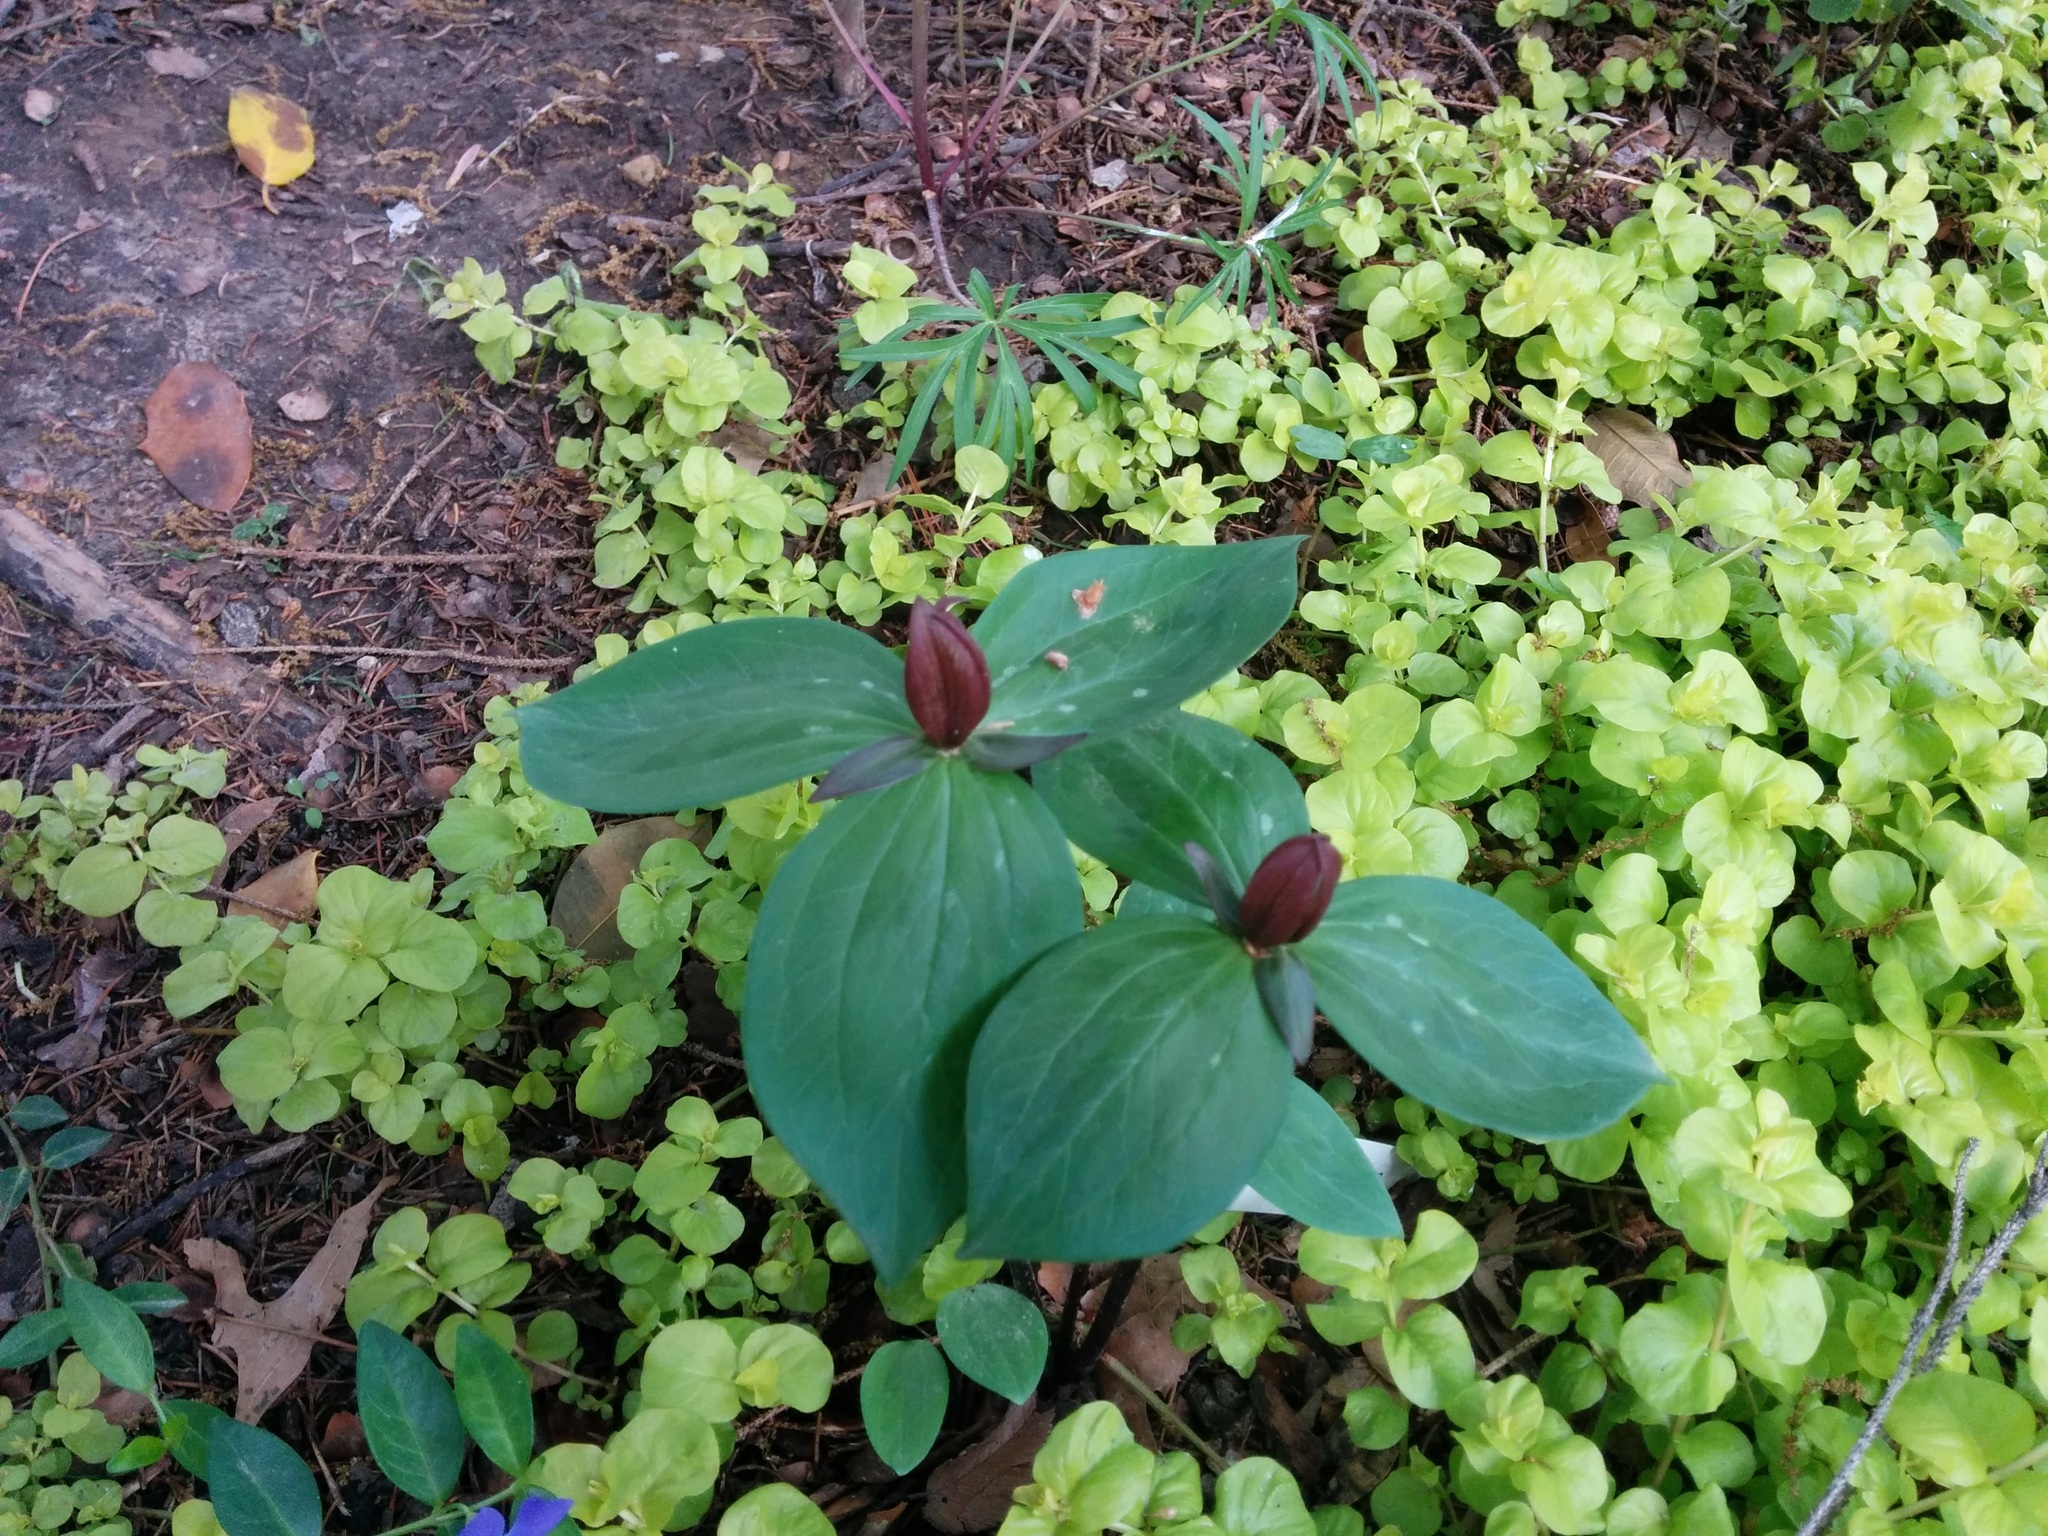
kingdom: Plantae
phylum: Tracheophyta
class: Liliopsida
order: Liliales
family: Melanthiaceae
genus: Trillium
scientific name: Trillium
